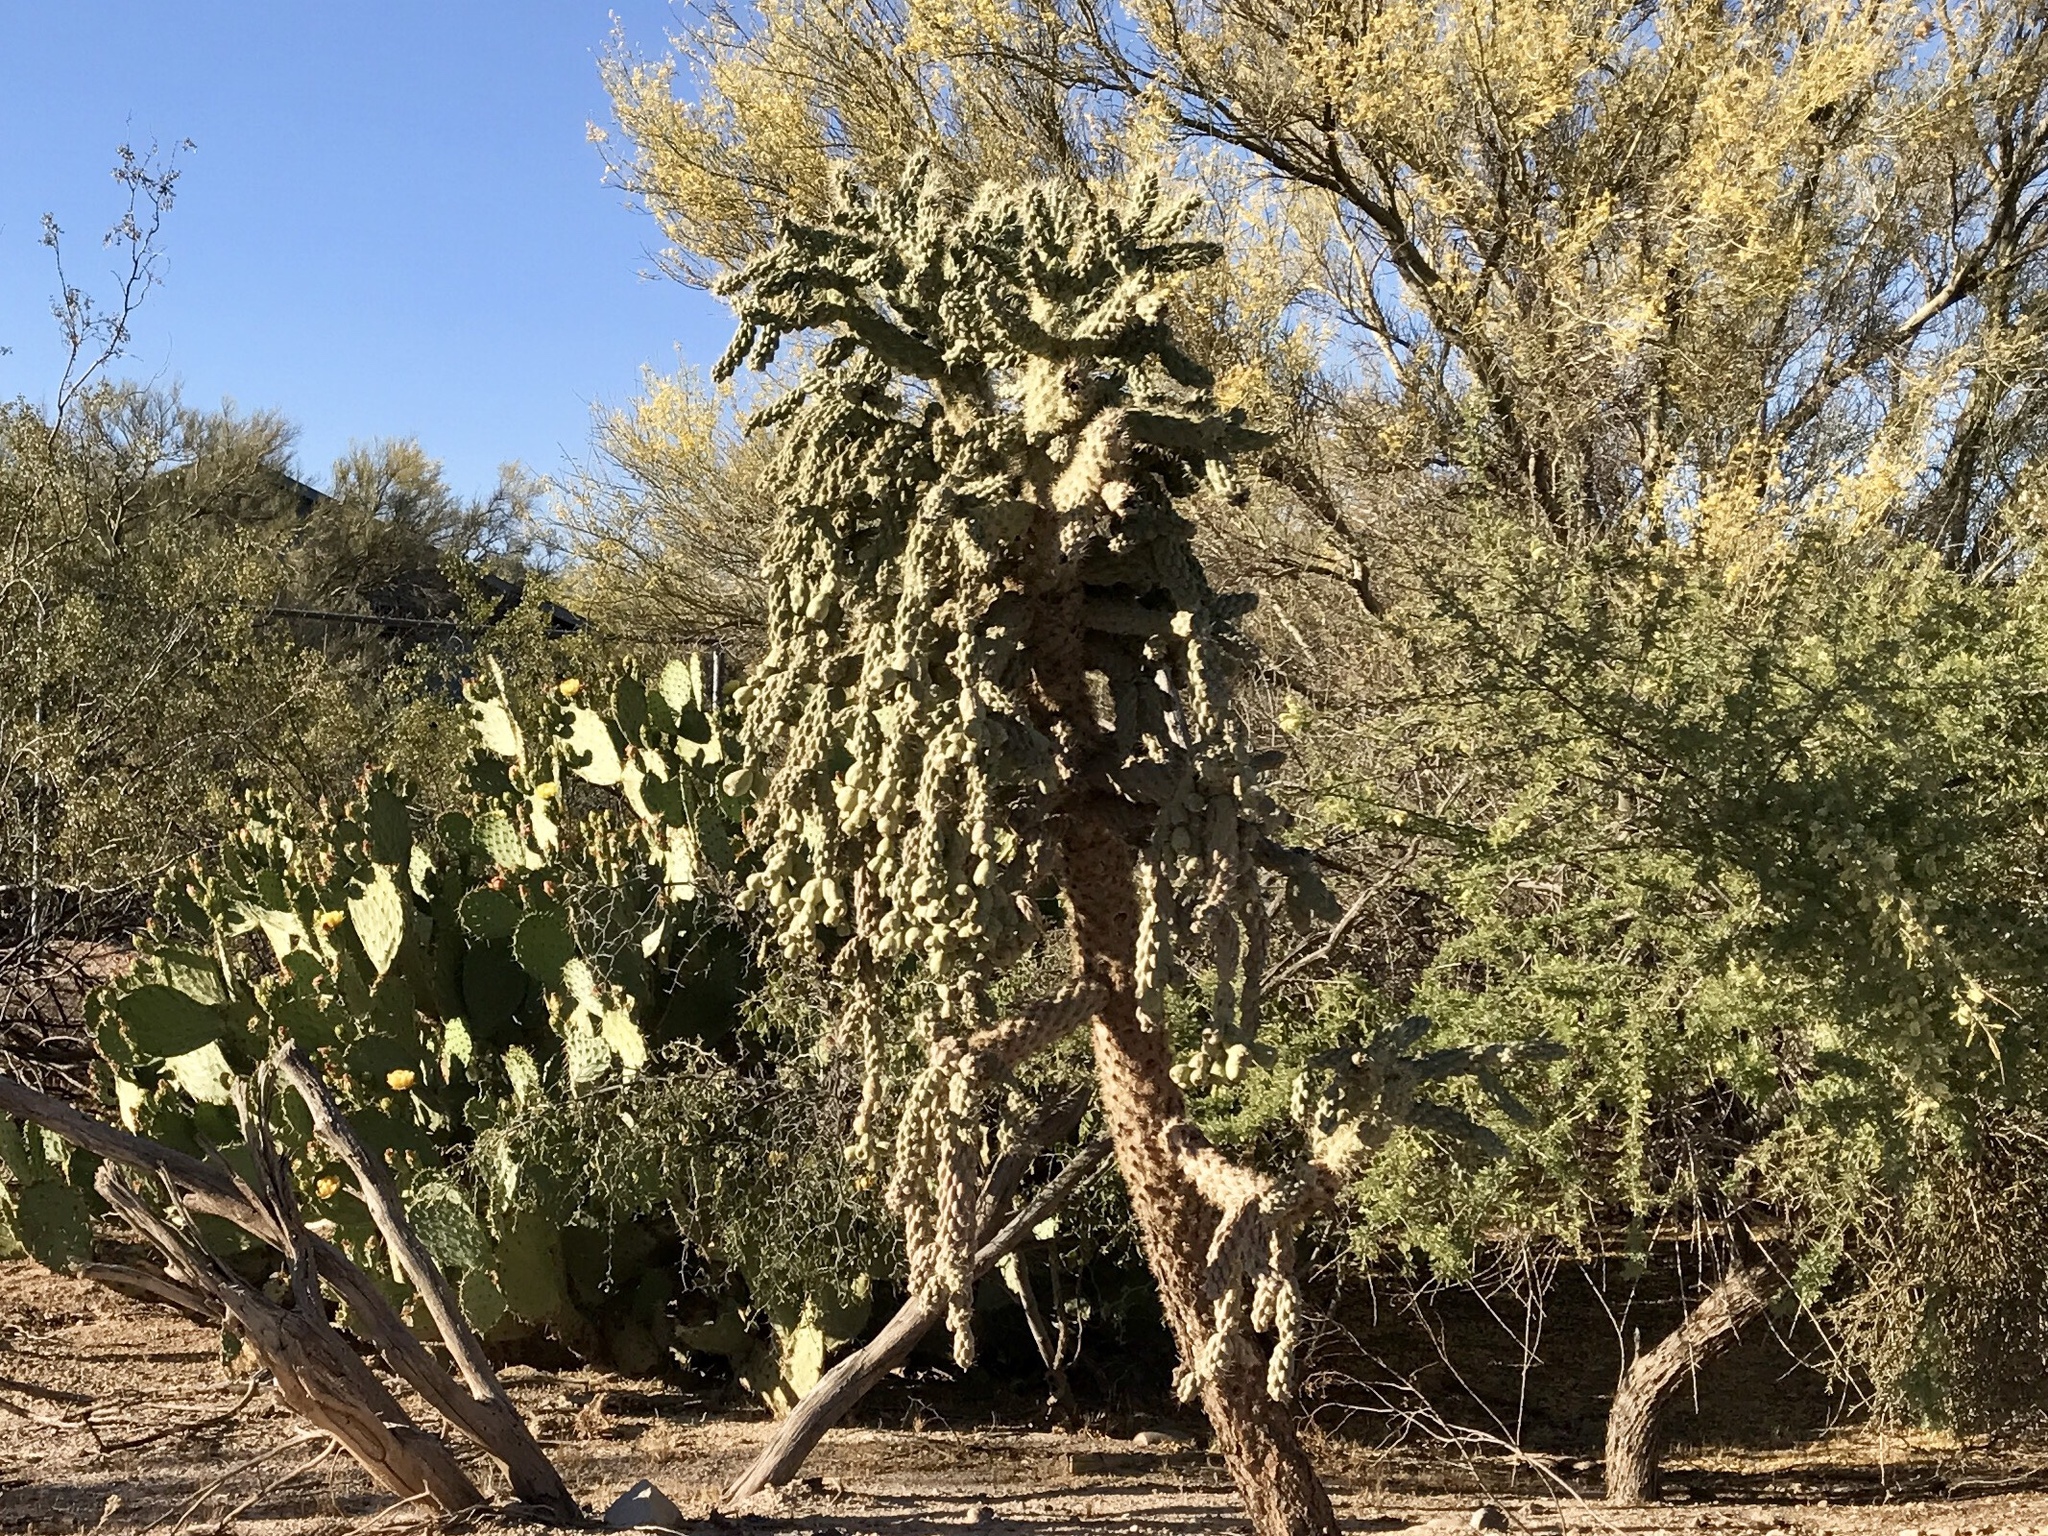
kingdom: Plantae
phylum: Tracheophyta
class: Magnoliopsida
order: Caryophyllales
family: Cactaceae
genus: Cylindropuntia
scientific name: Cylindropuntia fulgida
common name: Jumping cholla
